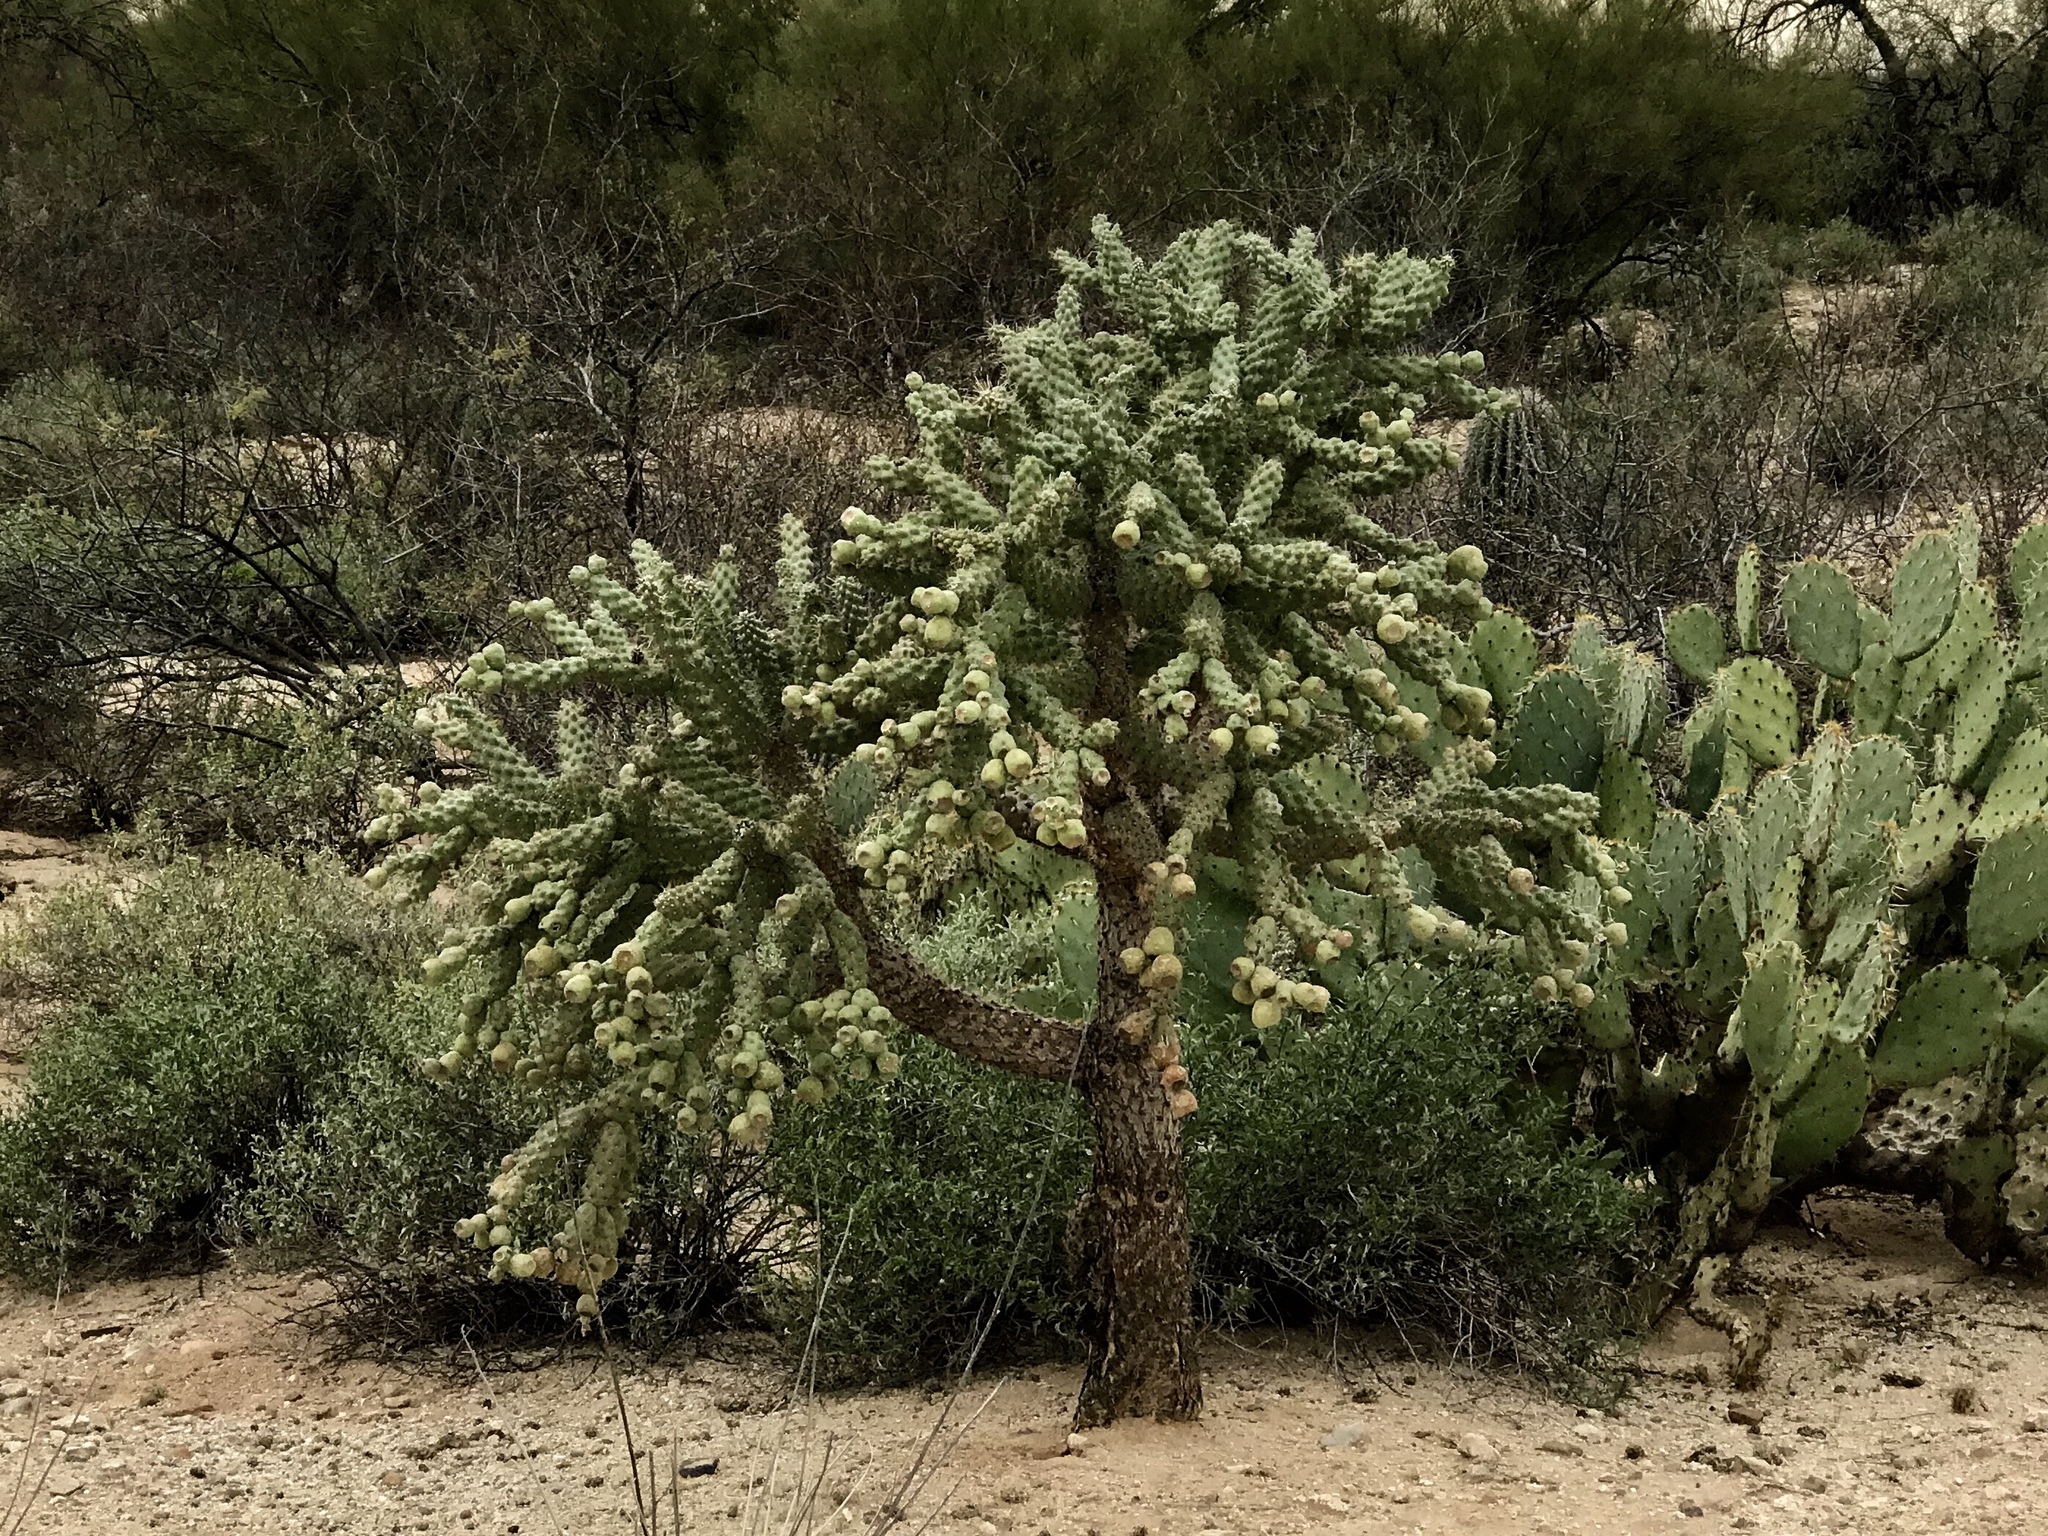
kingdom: Plantae
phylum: Tracheophyta
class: Magnoliopsida
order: Caryophyllales
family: Cactaceae
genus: Cylindropuntia
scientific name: Cylindropuntia fulgida
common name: Jumping cholla
